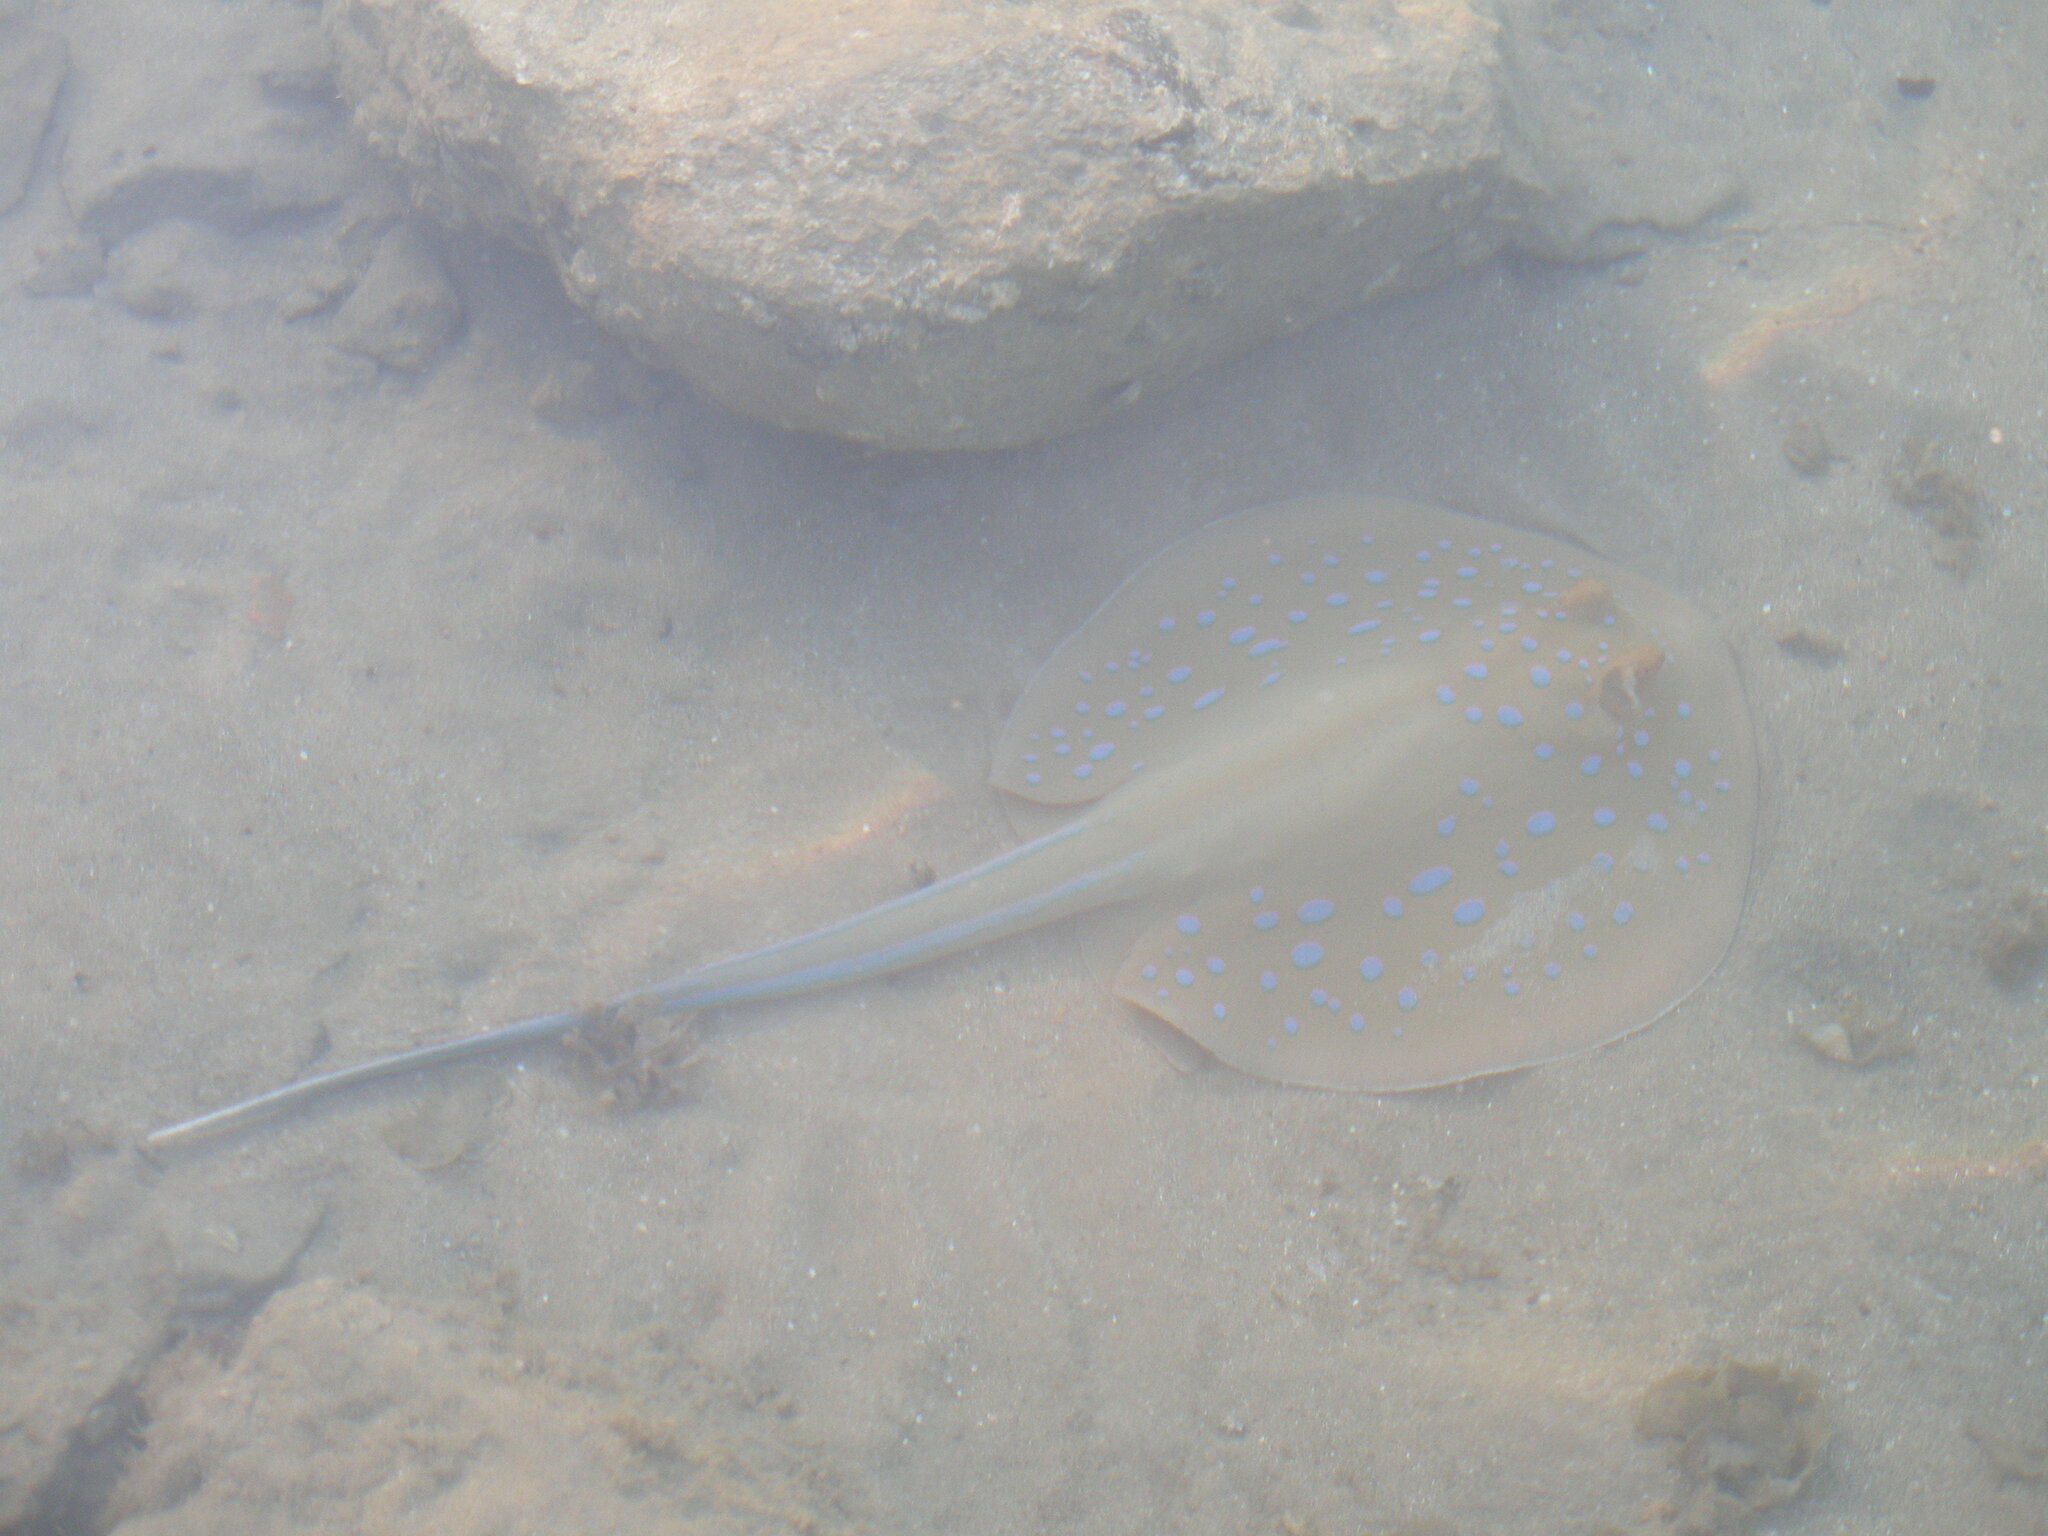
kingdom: Animalia
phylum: Chordata
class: Elasmobranchii
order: Myliobatiformes
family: Dasyatidae
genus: Taeniura
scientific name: Taeniura lymma
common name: Bluespotted ribbontail ray
